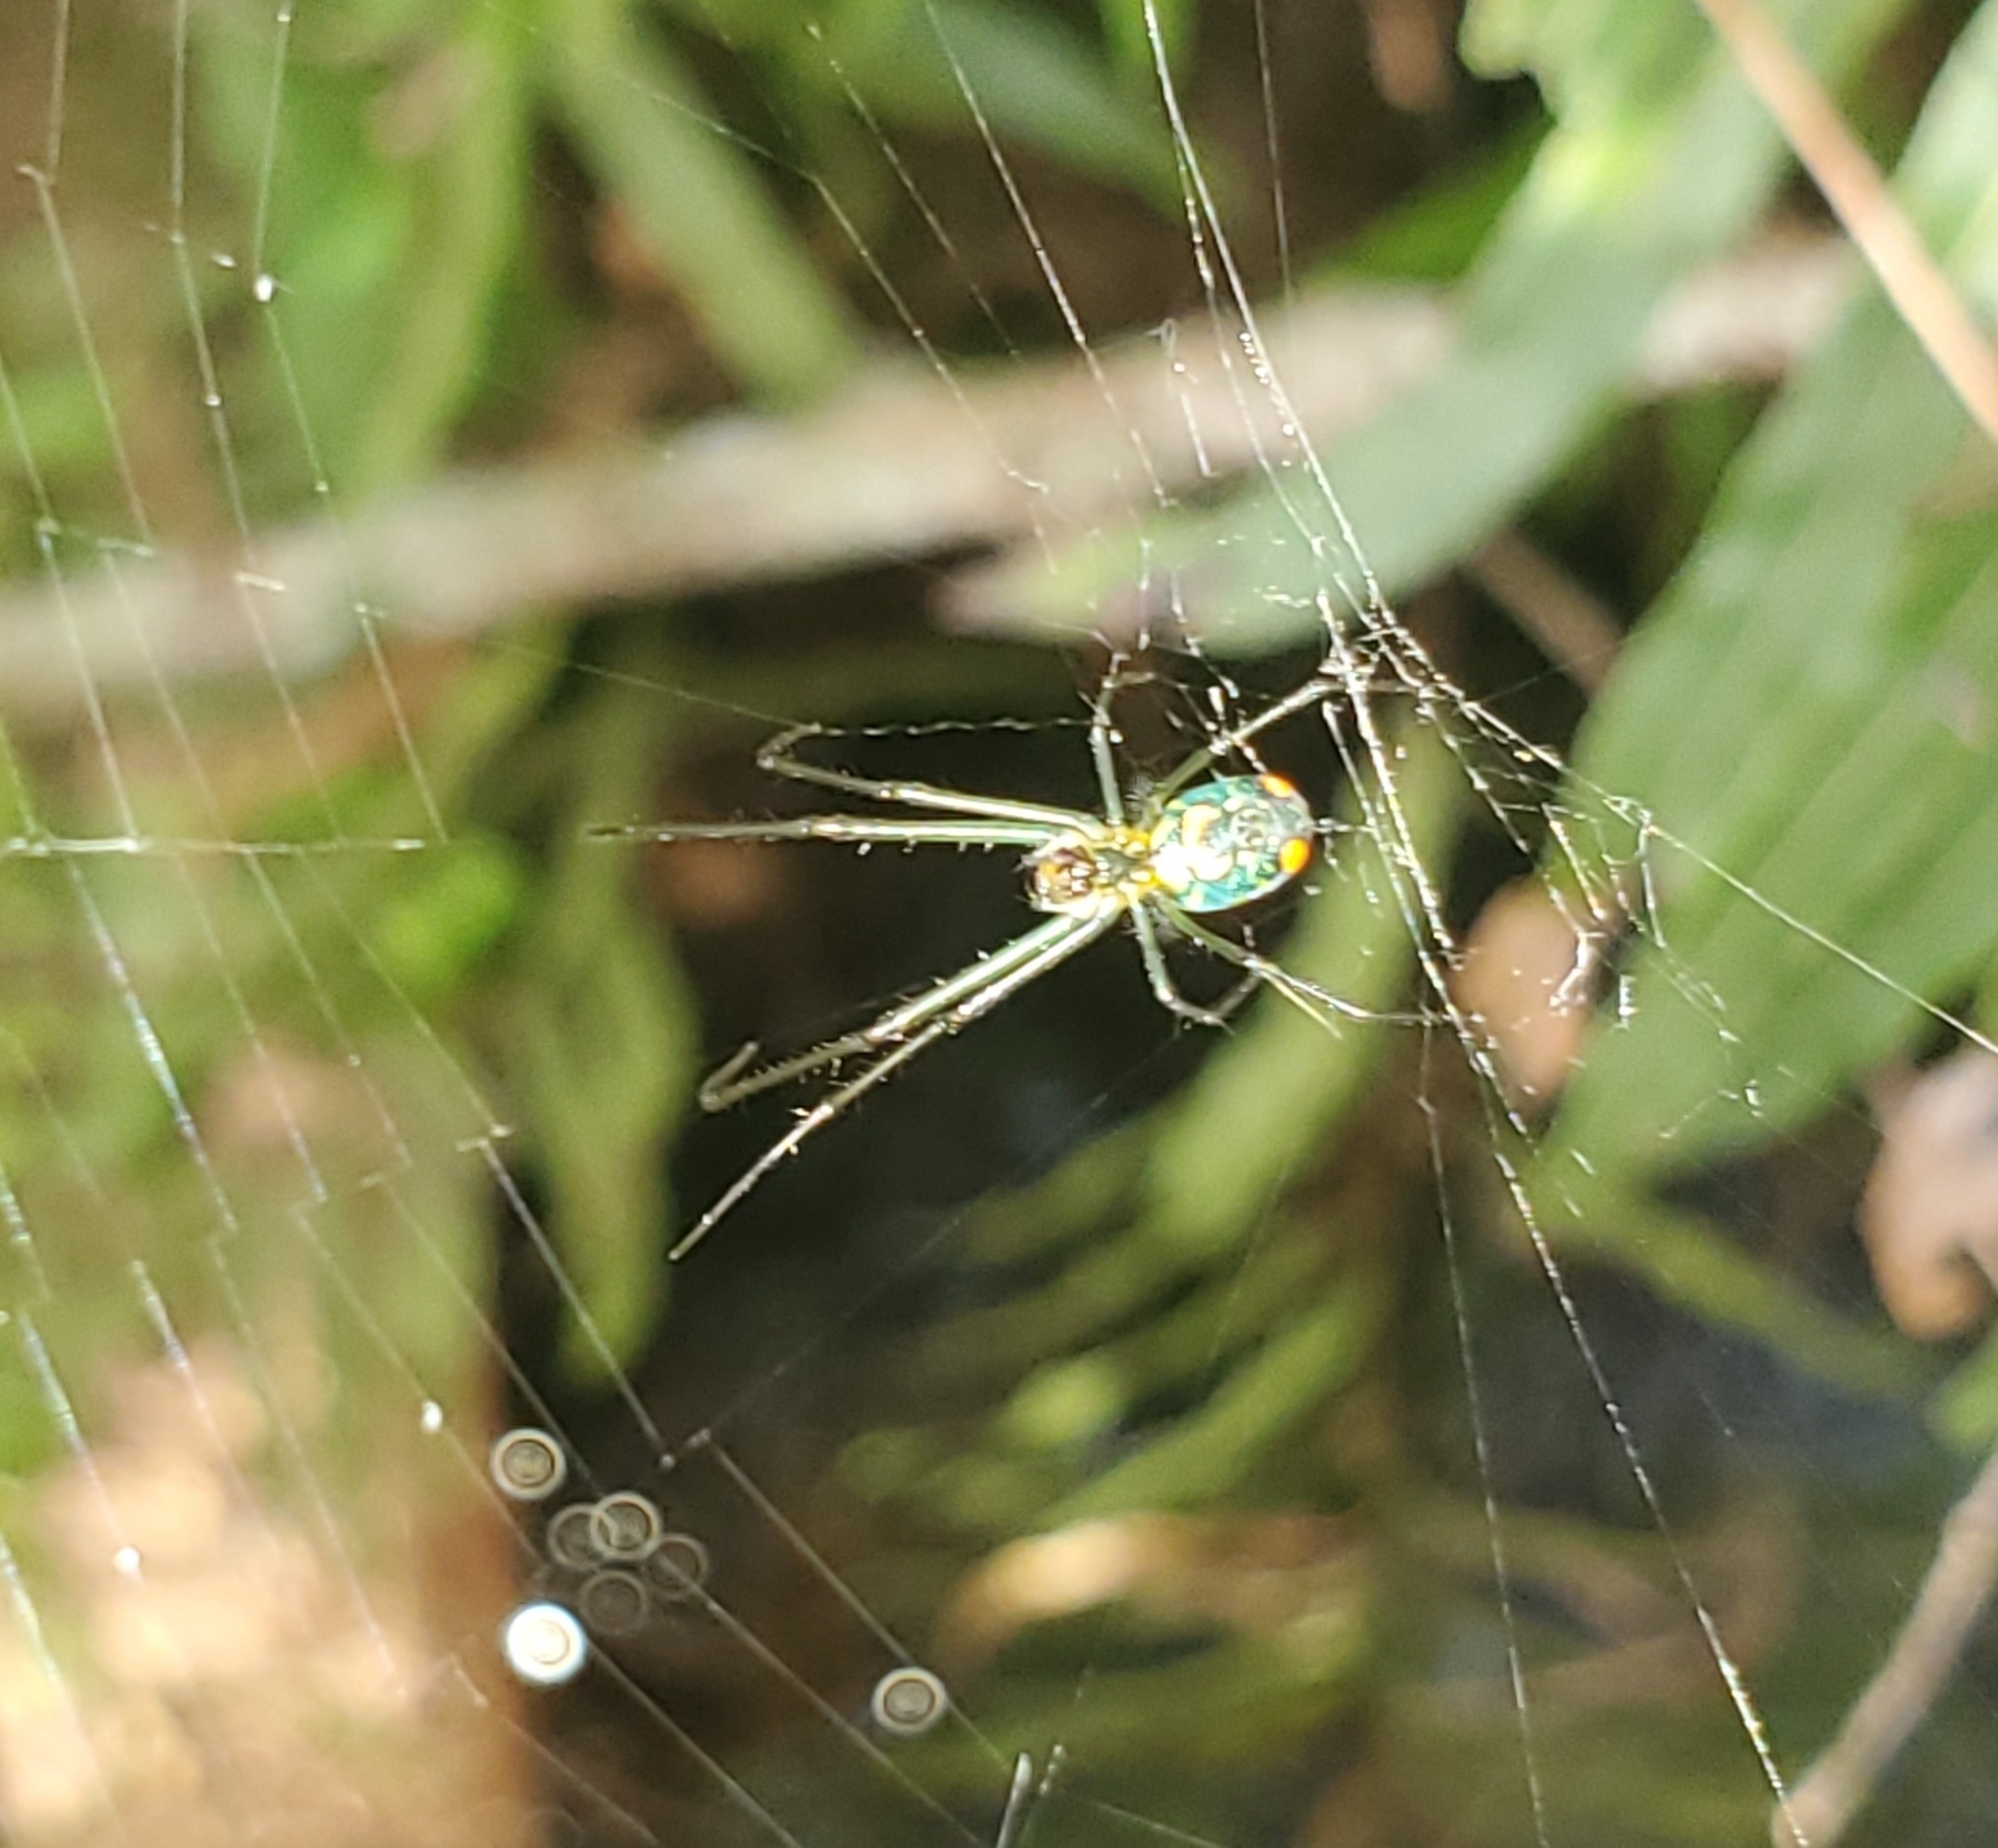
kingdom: Animalia
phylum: Arthropoda
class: Arachnida
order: Araneae
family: Tetragnathidae
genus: Leucauge
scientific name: Leucauge argyrobapta
